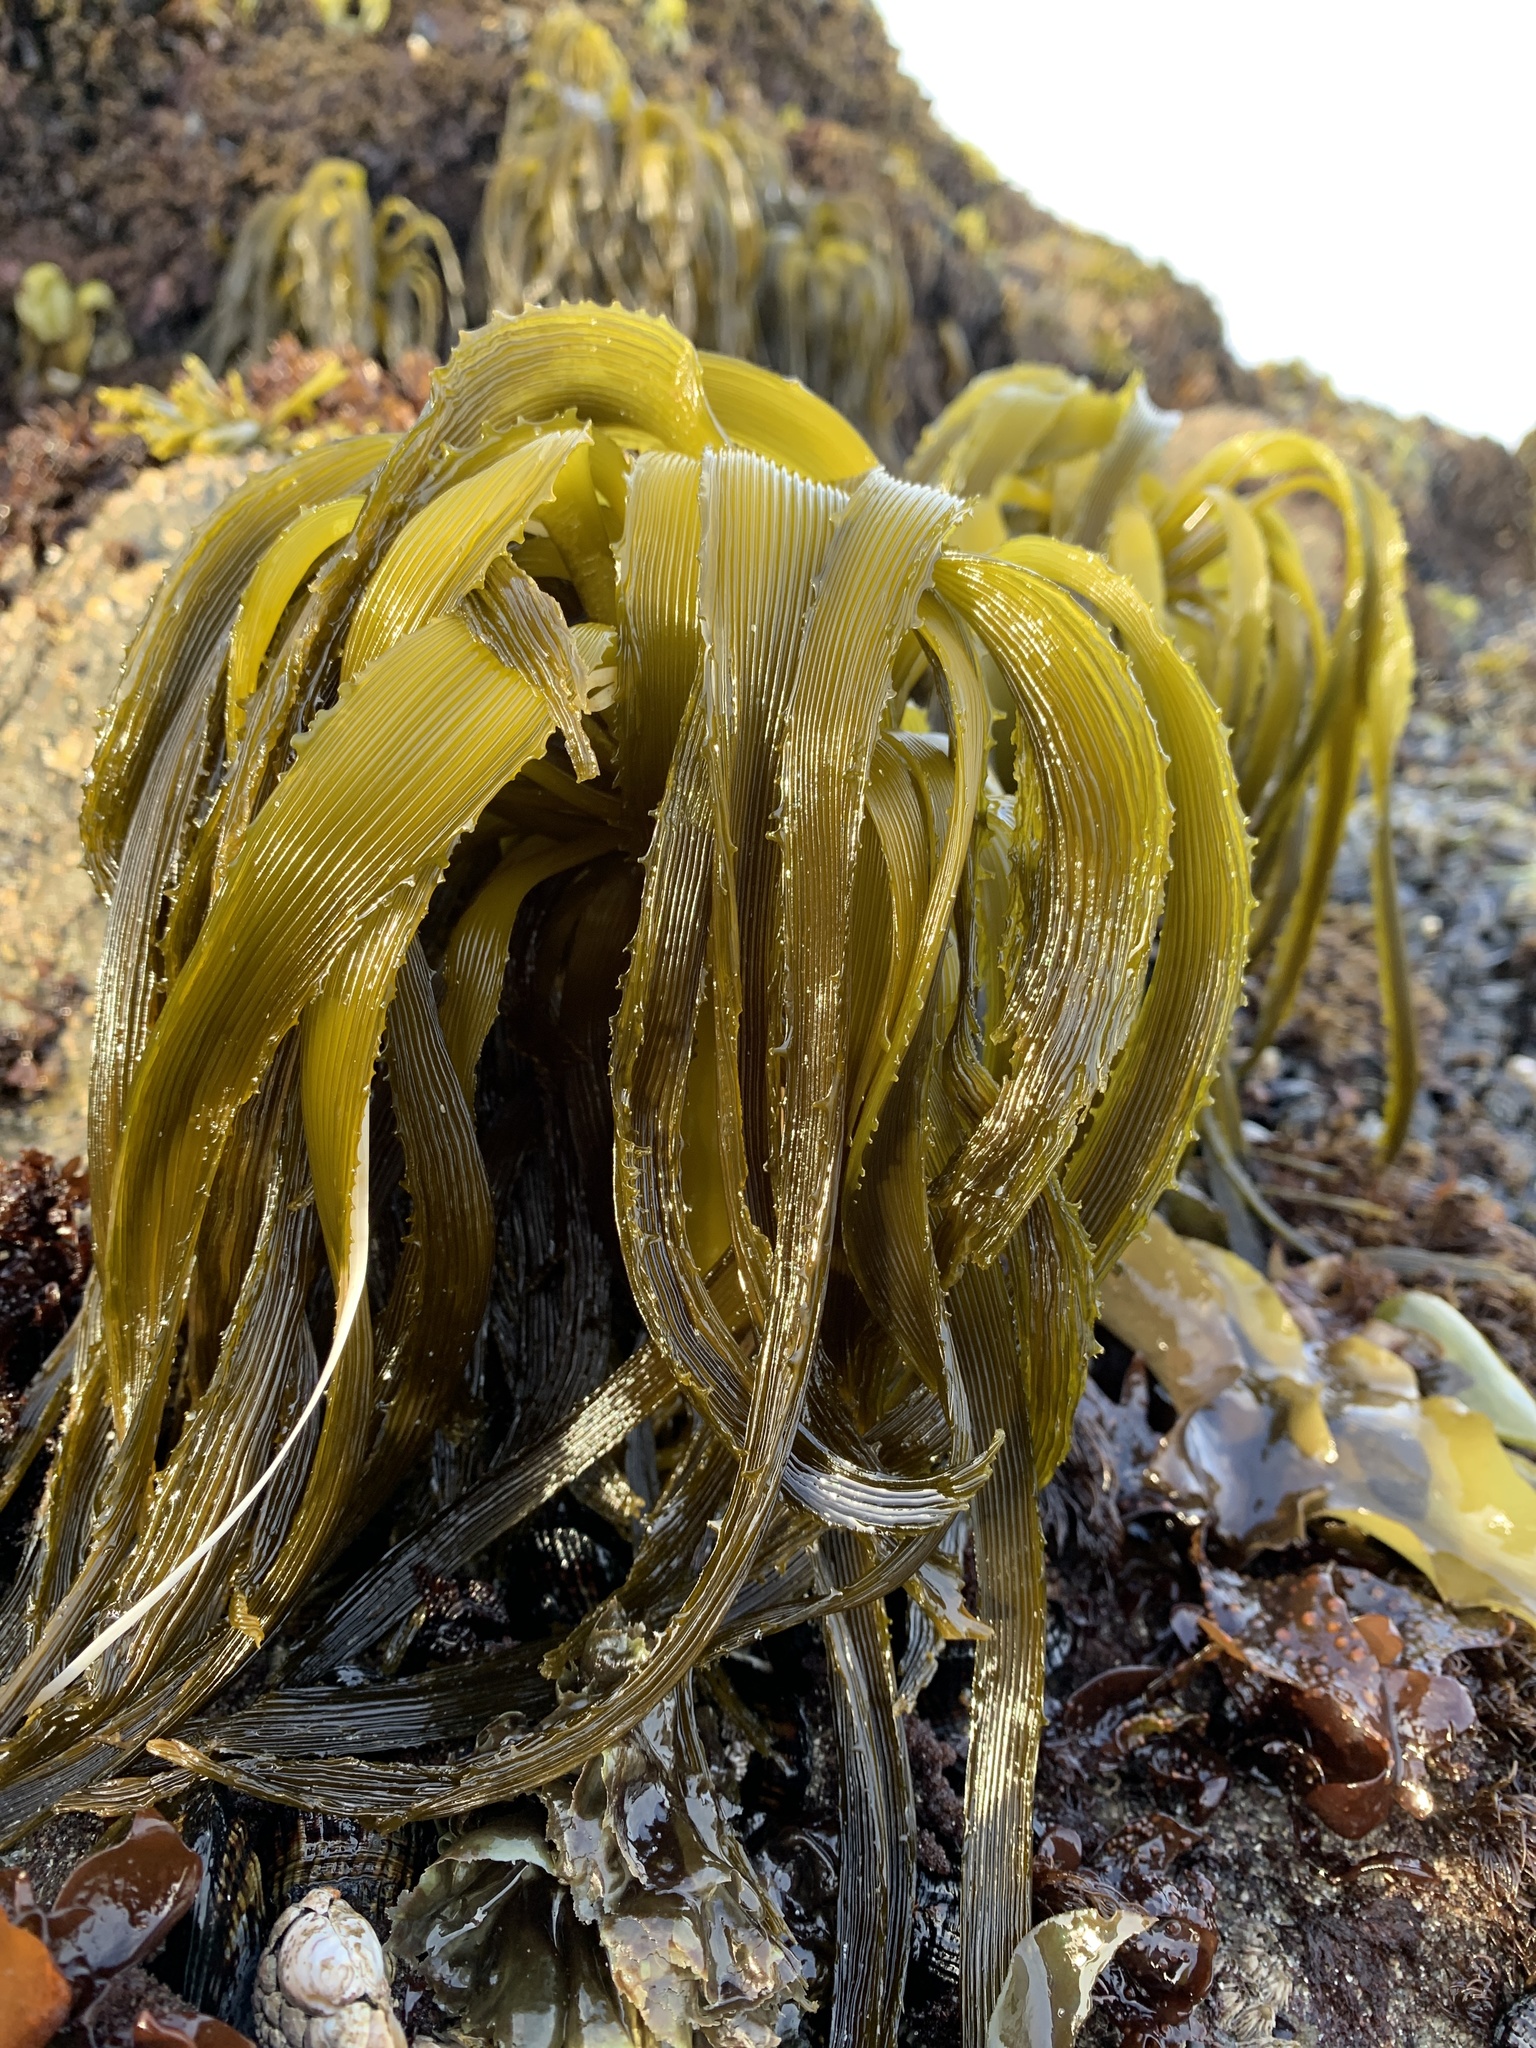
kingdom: Chromista
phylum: Ochrophyta
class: Phaeophyceae
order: Laminariales
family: Laminariaceae
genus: Postelsia
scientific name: Postelsia palmiformis
